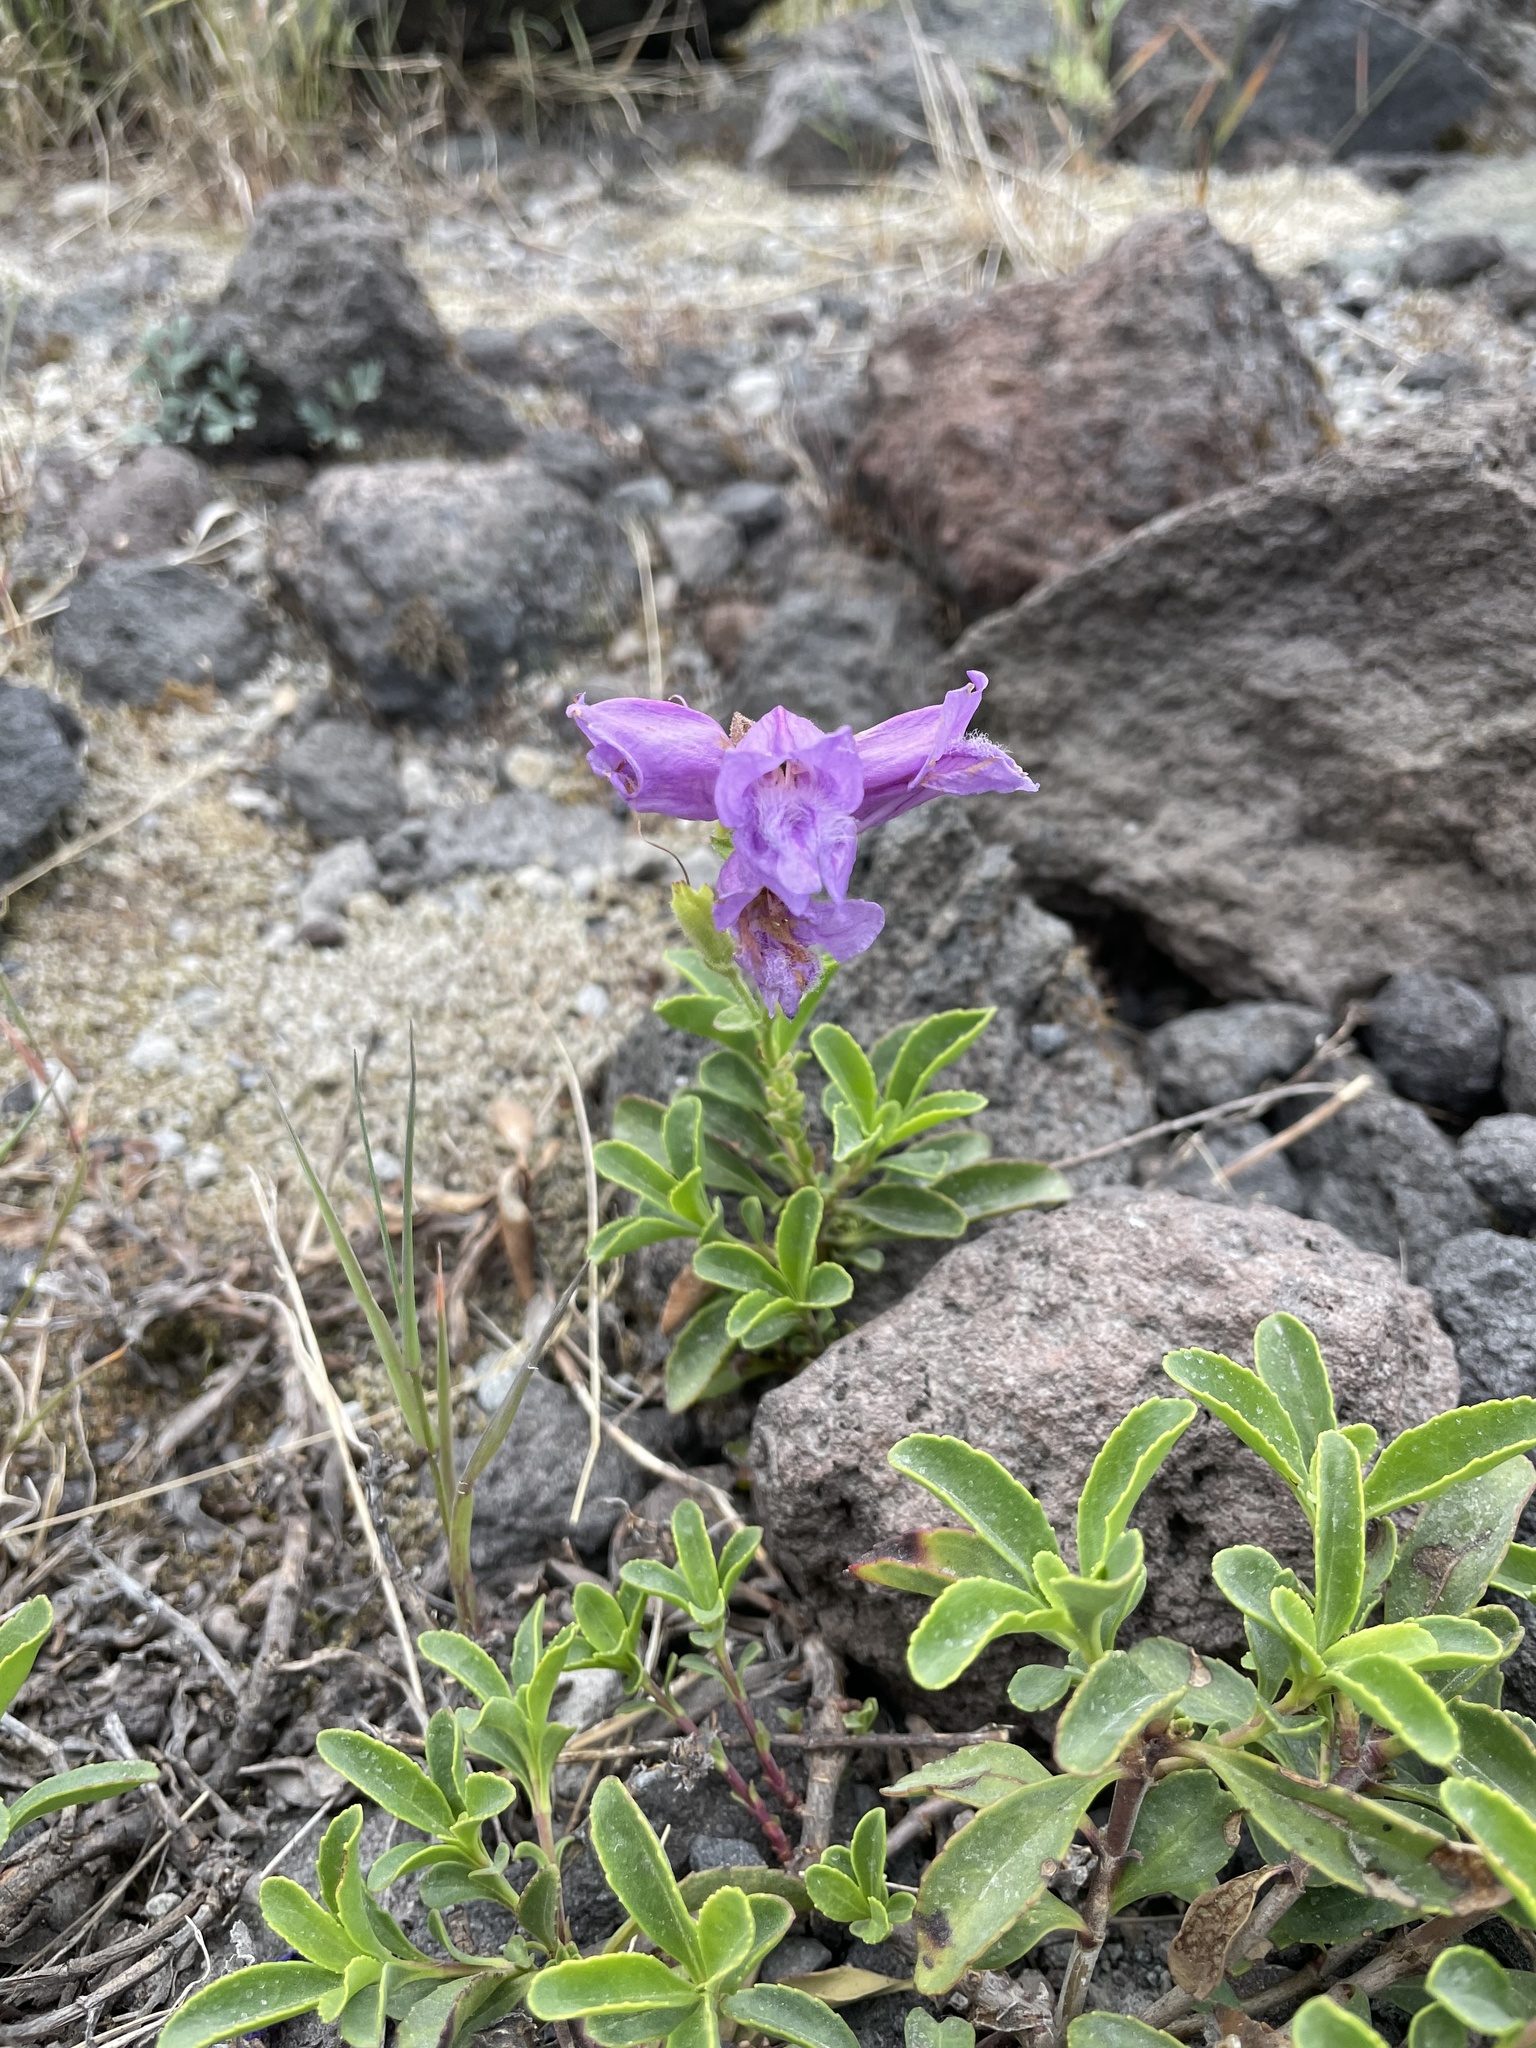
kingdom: Plantae
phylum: Tracheophyta
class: Magnoliopsida
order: Lamiales
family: Plantaginaceae
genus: Penstemon
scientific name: Penstemon davidsonii
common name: Davidson's penstemon
